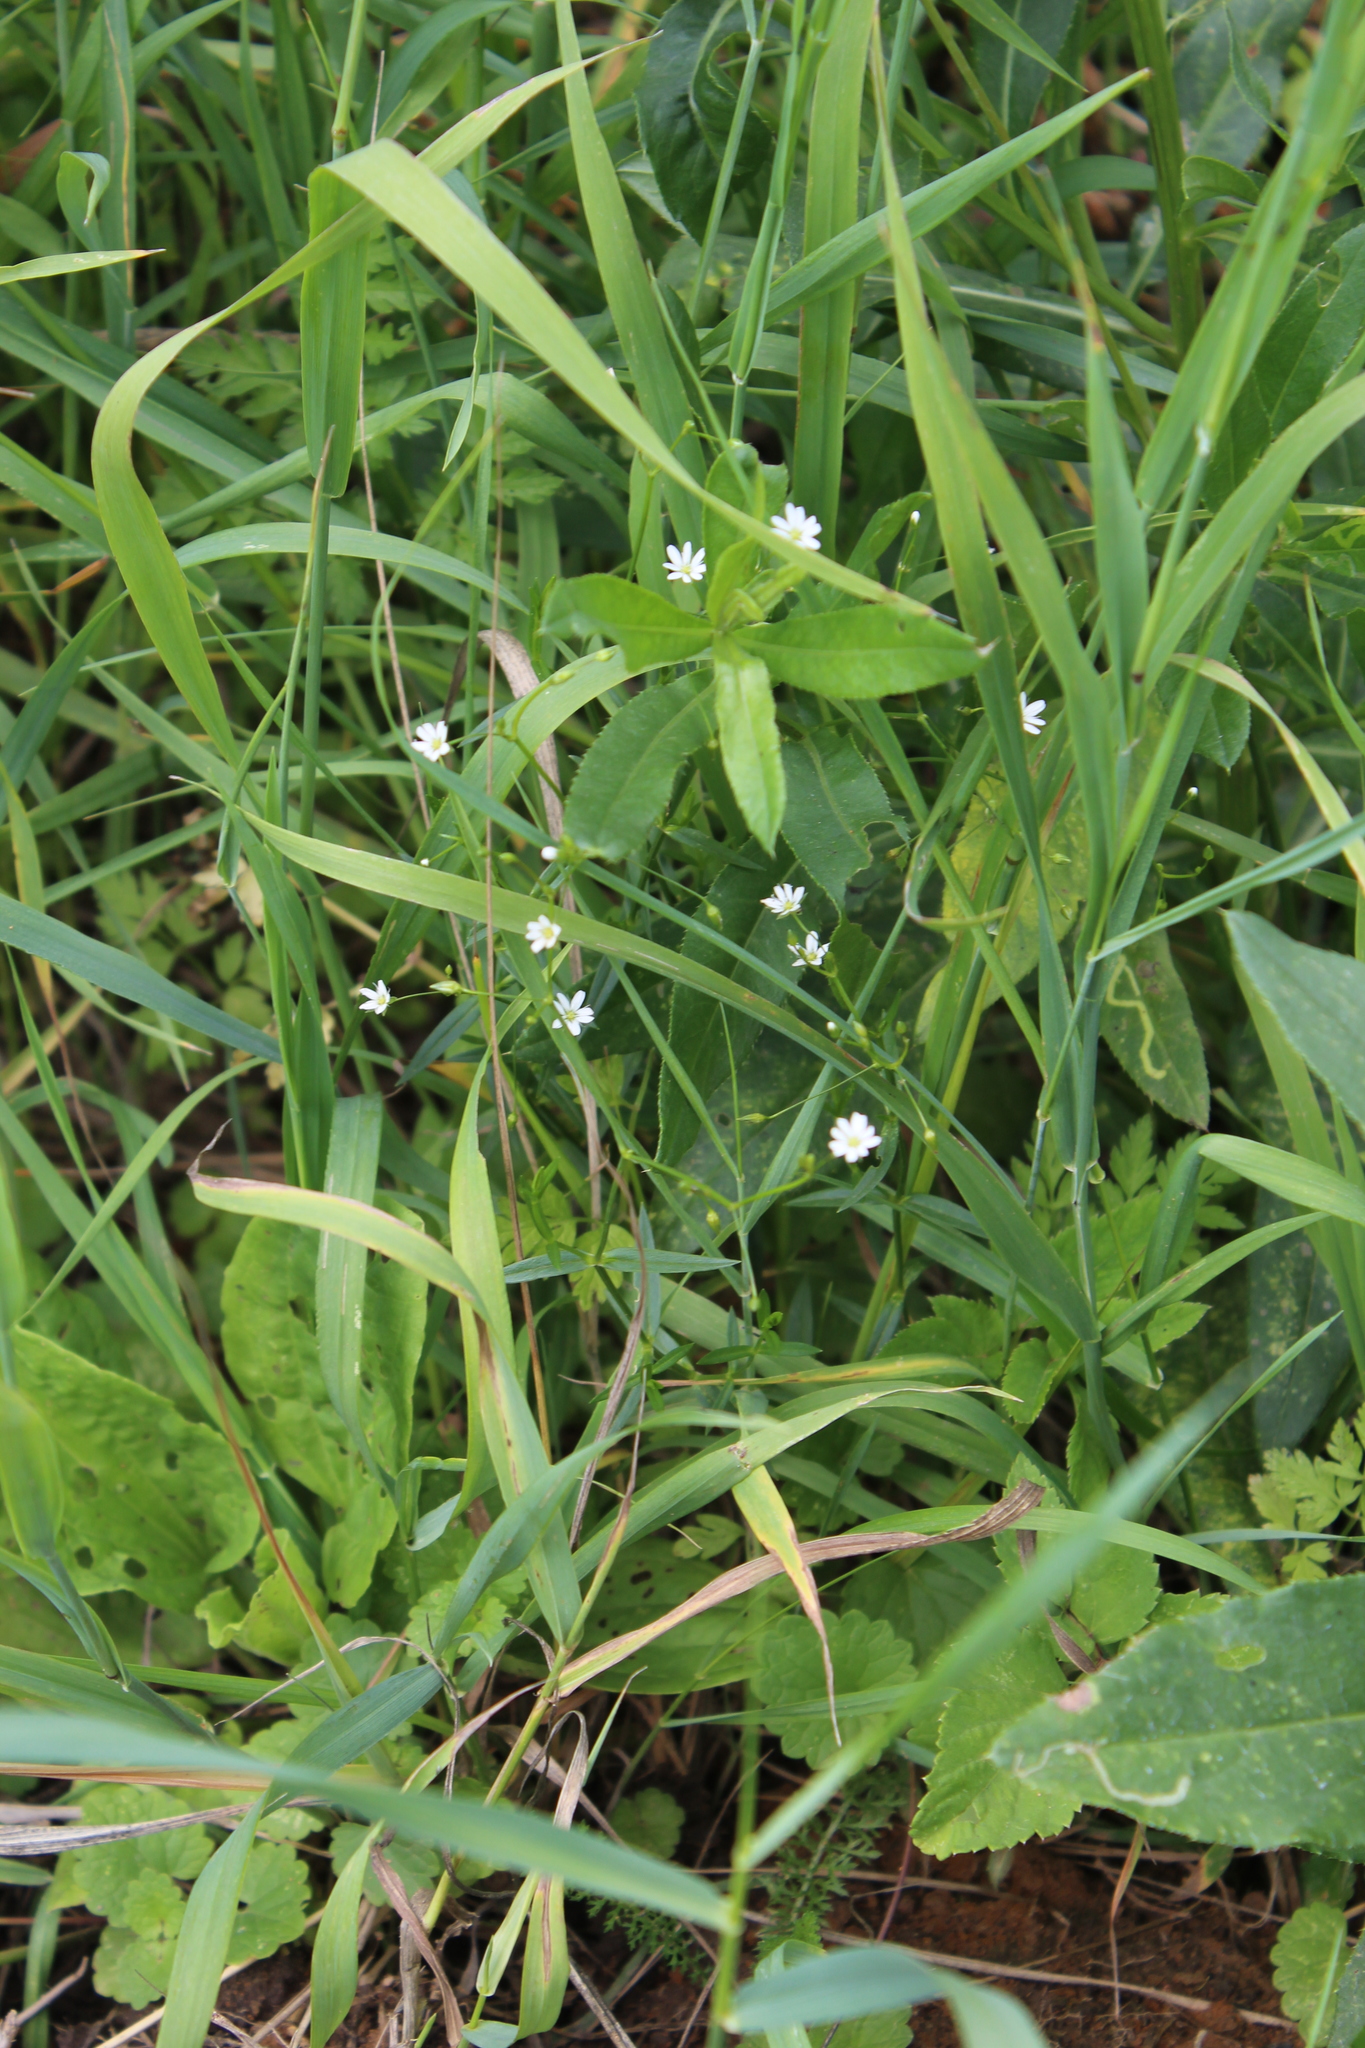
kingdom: Plantae
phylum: Tracheophyta
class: Magnoliopsida
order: Caryophyllales
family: Caryophyllaceae
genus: Stellaria
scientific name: Stellaria graminea
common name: Grass-like starwort
